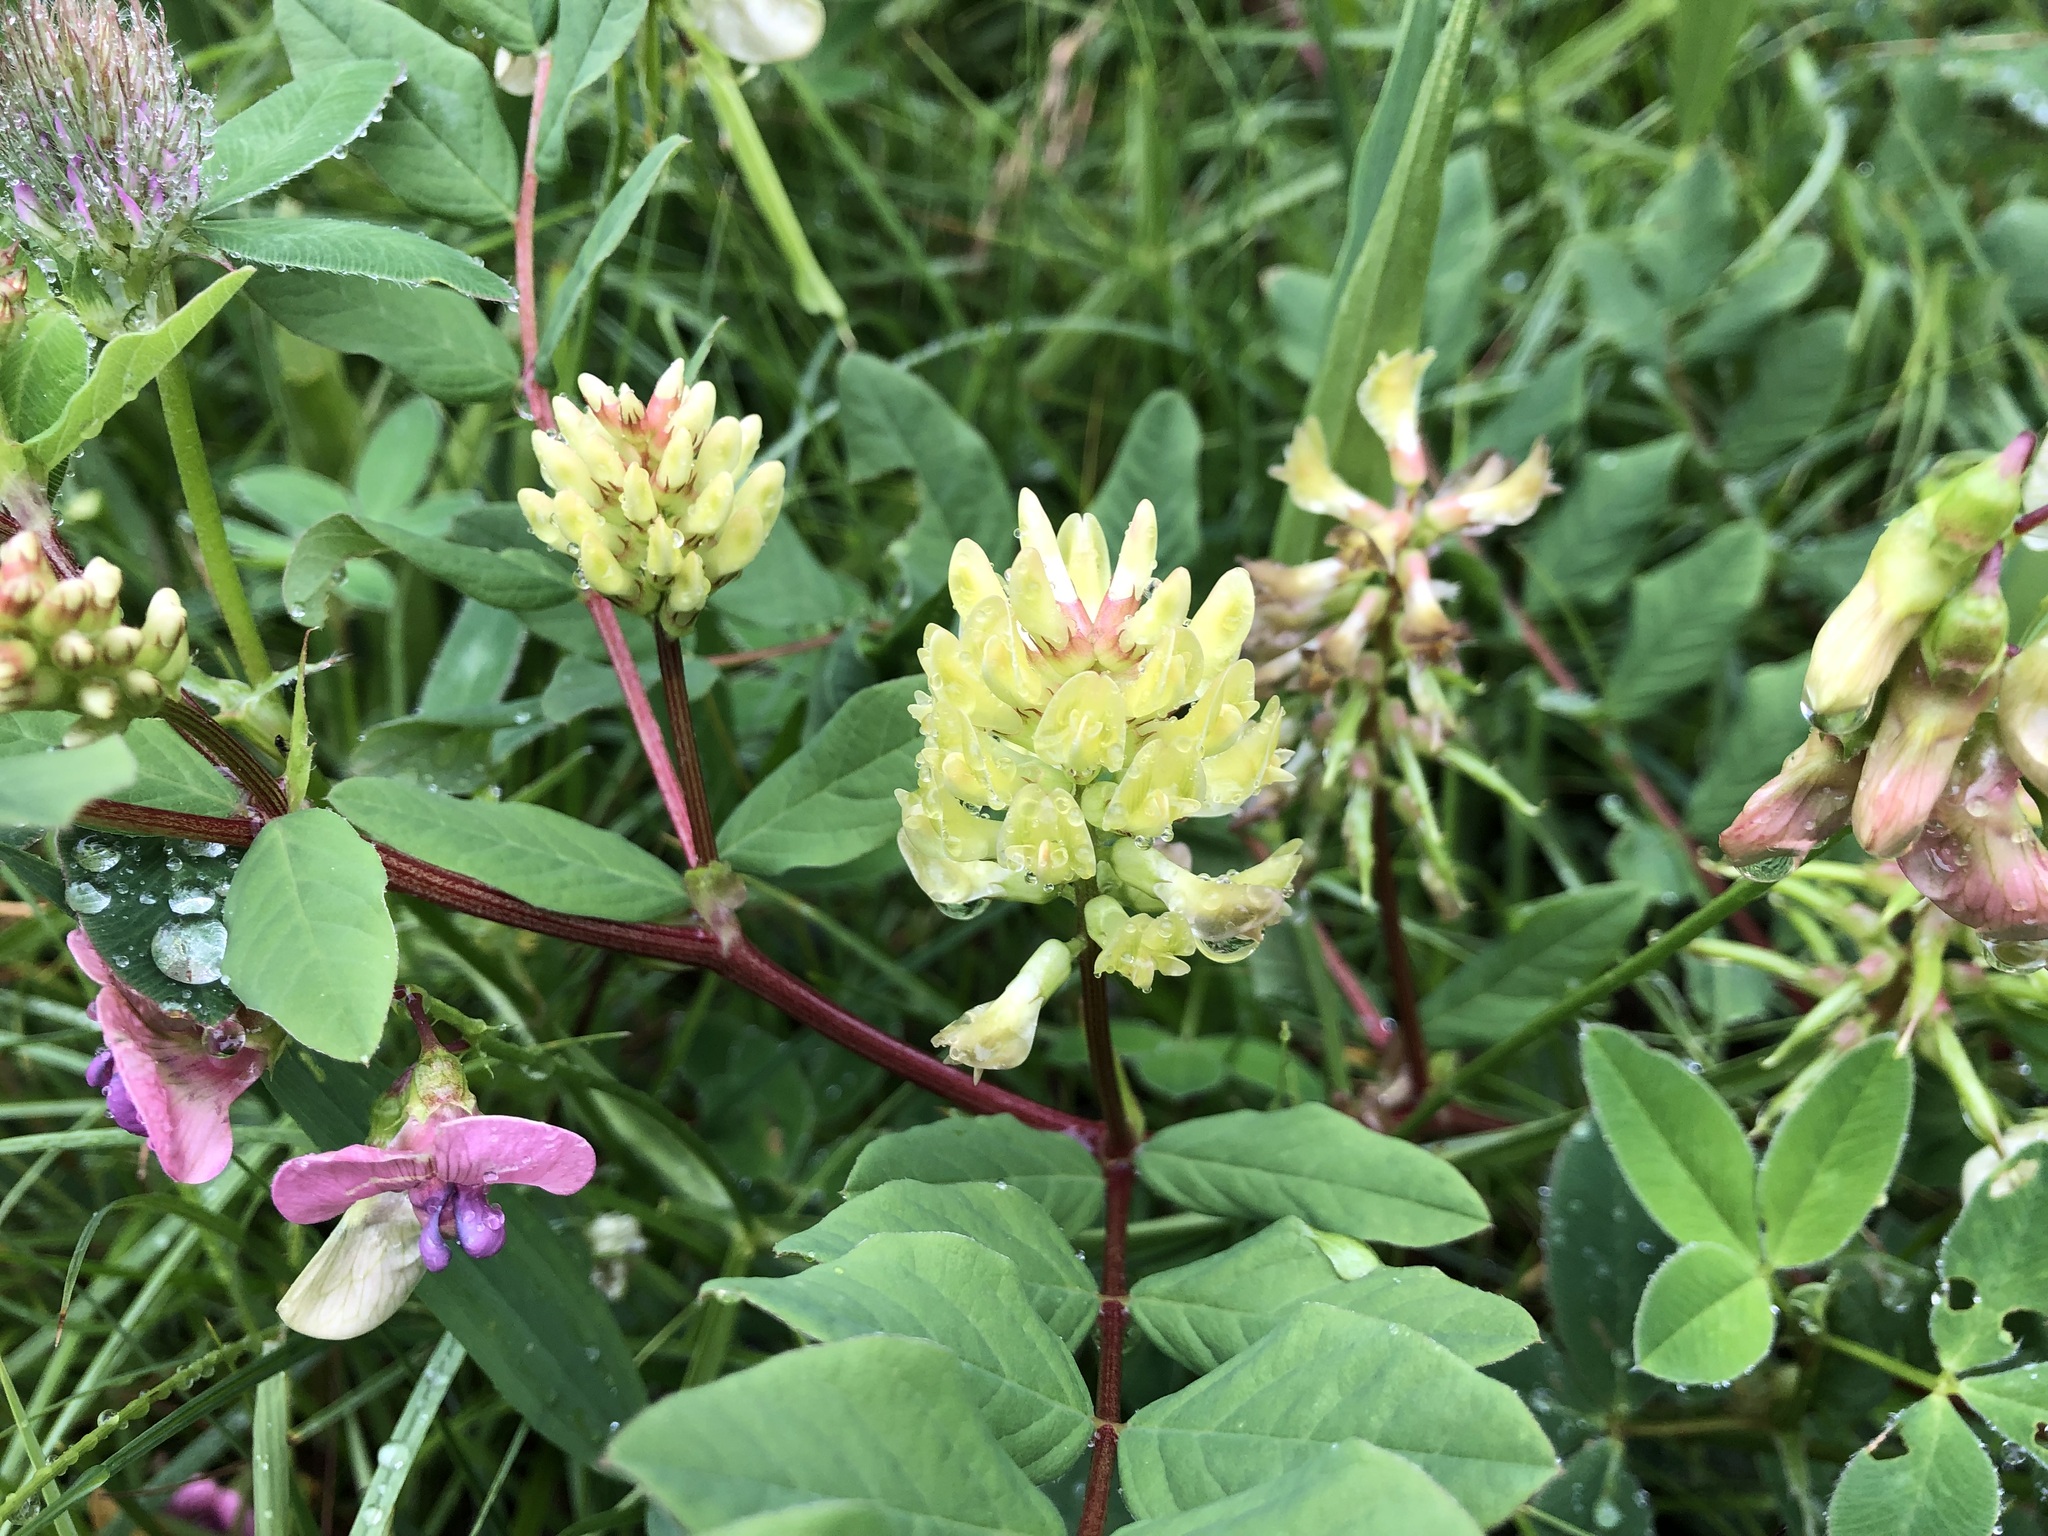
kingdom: Plantae
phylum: Tracheophyta
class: Magnoliopsida
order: Fabales
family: Fabaceae
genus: Astragalus
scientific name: Astragalus glycyphyllos
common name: Wild liquorice
